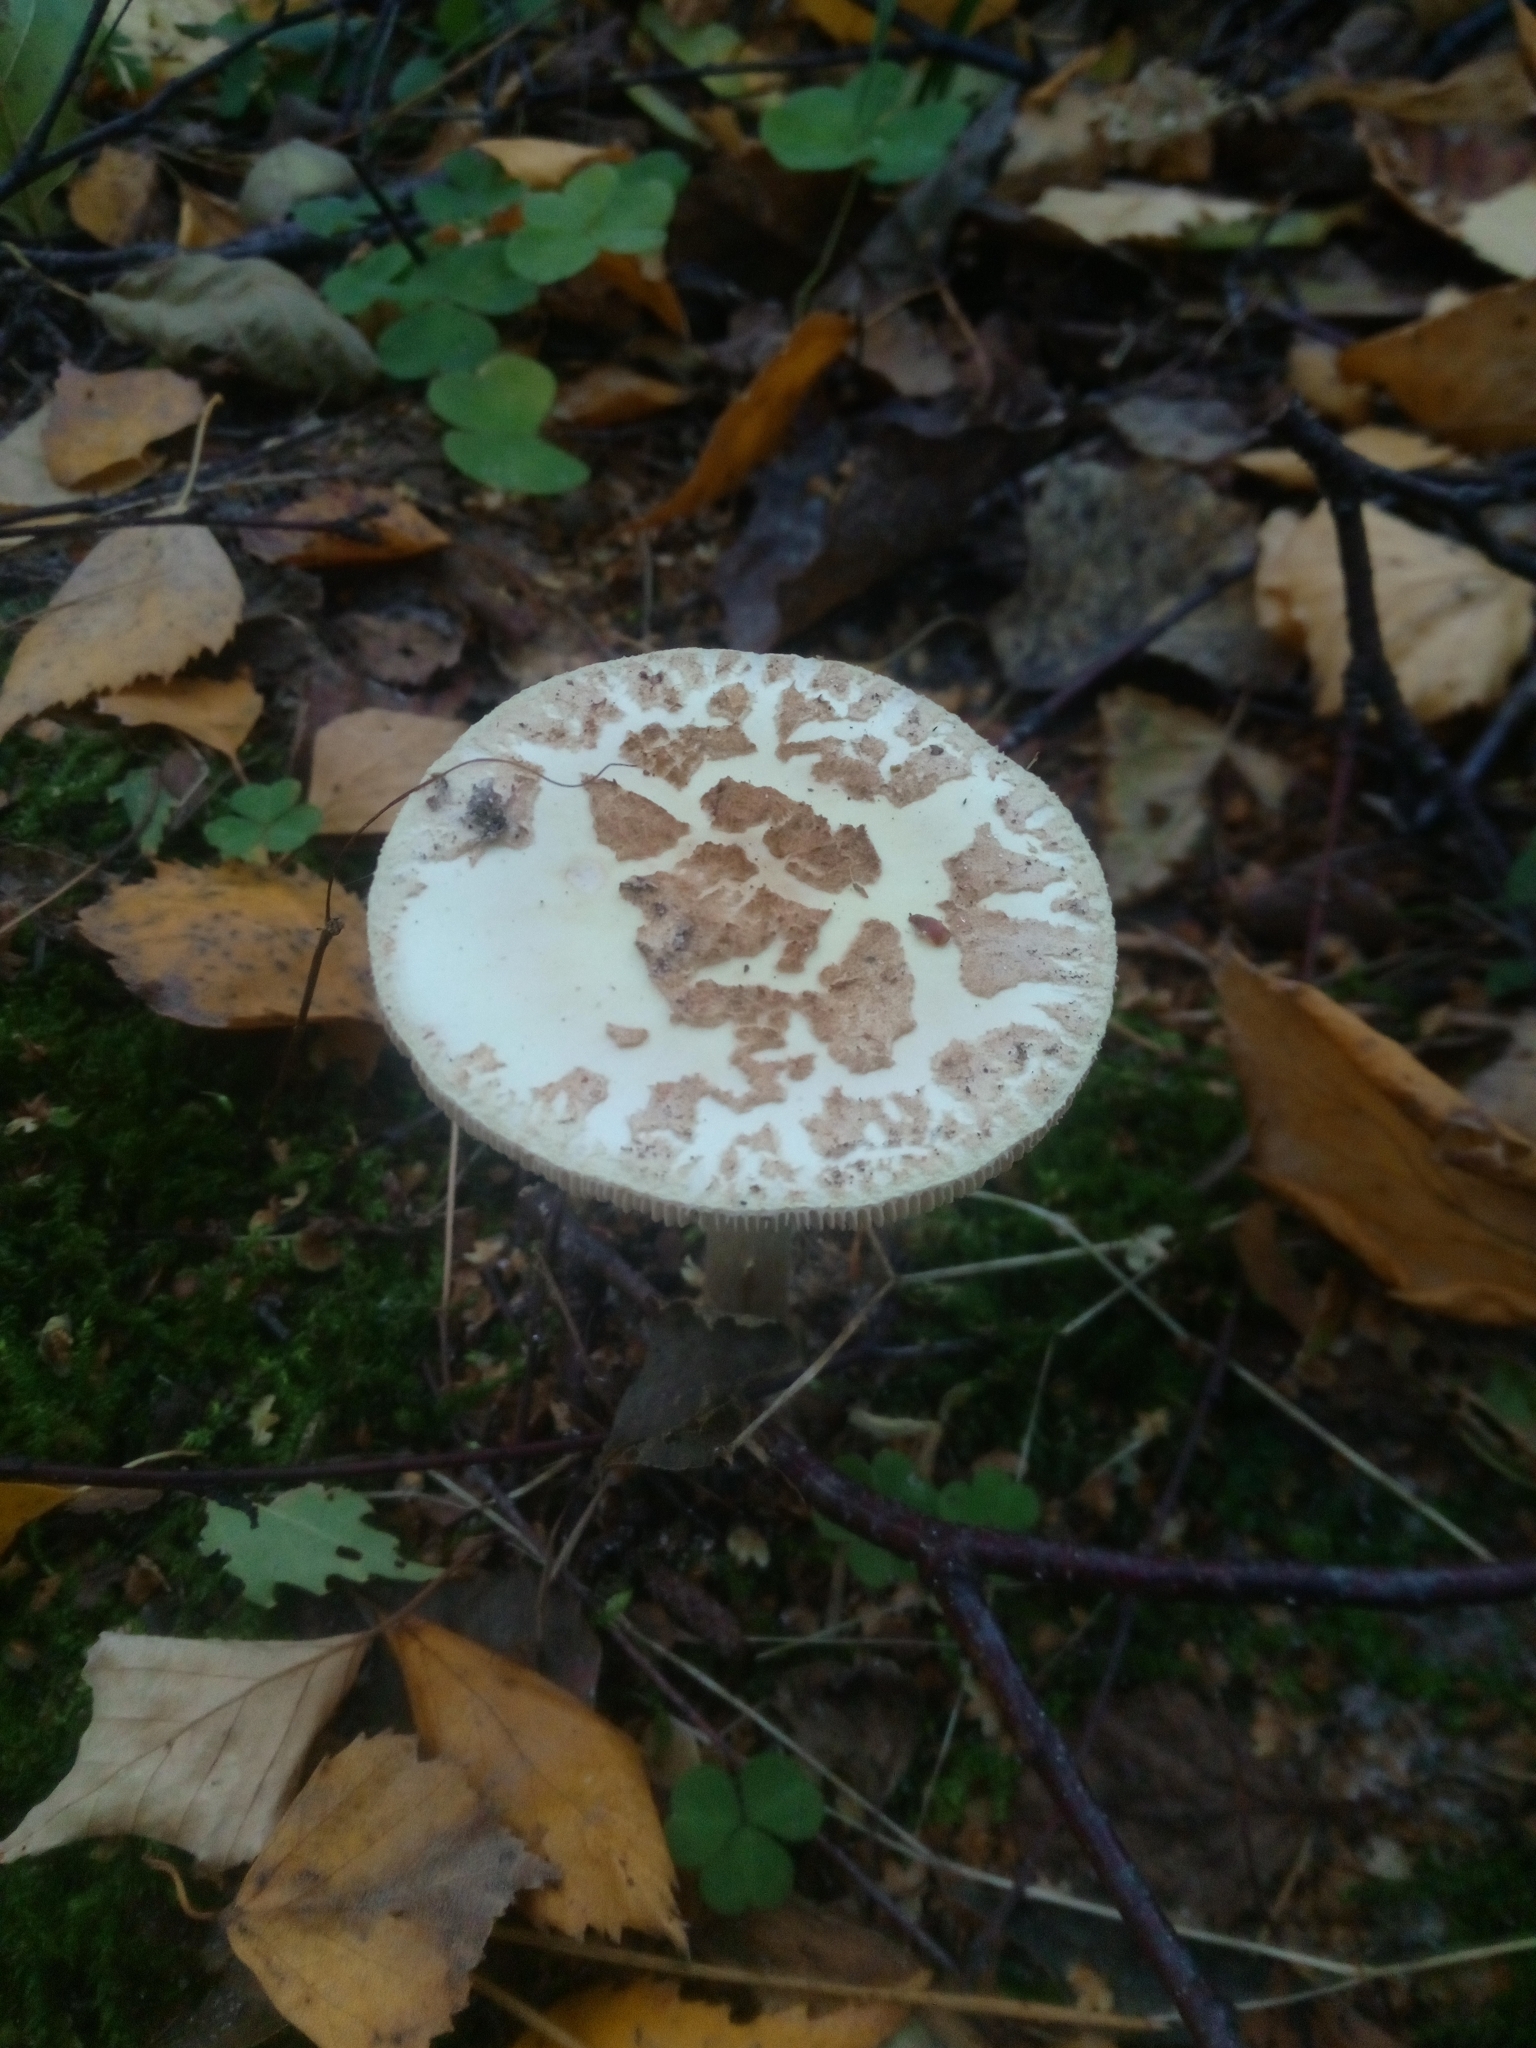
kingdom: Fungi
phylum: Basidiomycota
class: Agaricomycetes
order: Agaricales
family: Amanitaceae
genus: Amanita
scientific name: Amanita citrina
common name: False death-cap
